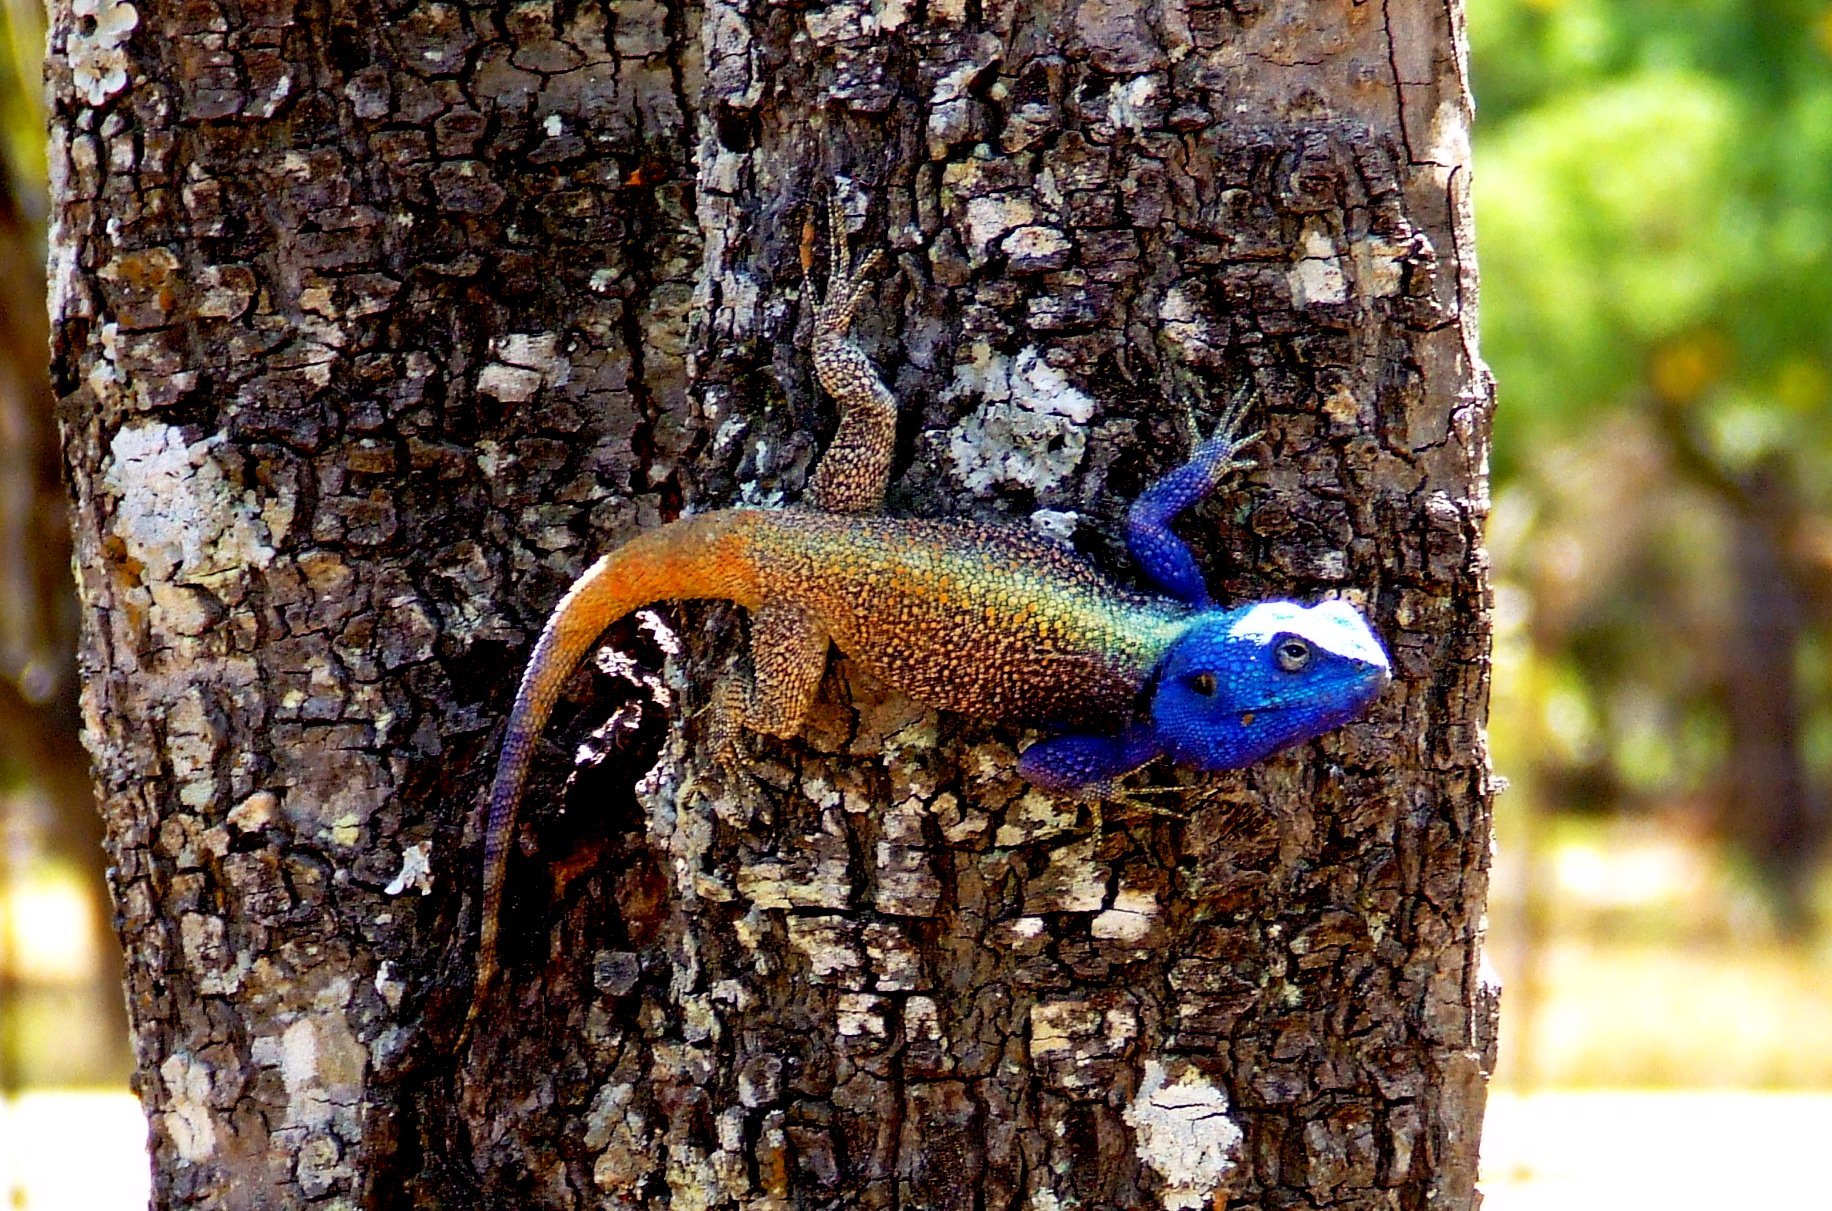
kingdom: Animalia
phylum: Chordata
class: Squamata
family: Agamidae
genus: Acanthocercus
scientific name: Acanthocercus
